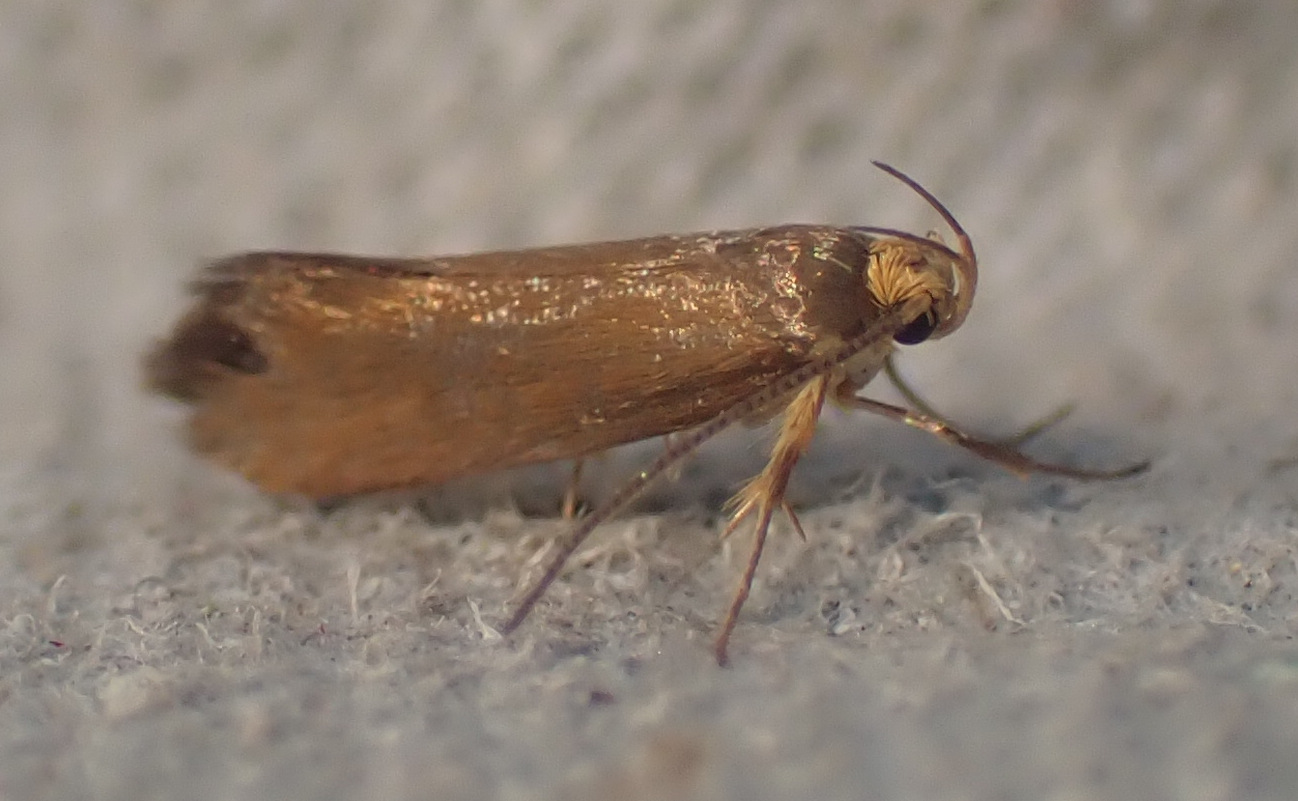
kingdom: Animalia
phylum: Arthropoda
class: Insecta
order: Lepidoptera
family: Oecophoridae
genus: Borkhausenia
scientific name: Borkhausenia Crassa unitella
